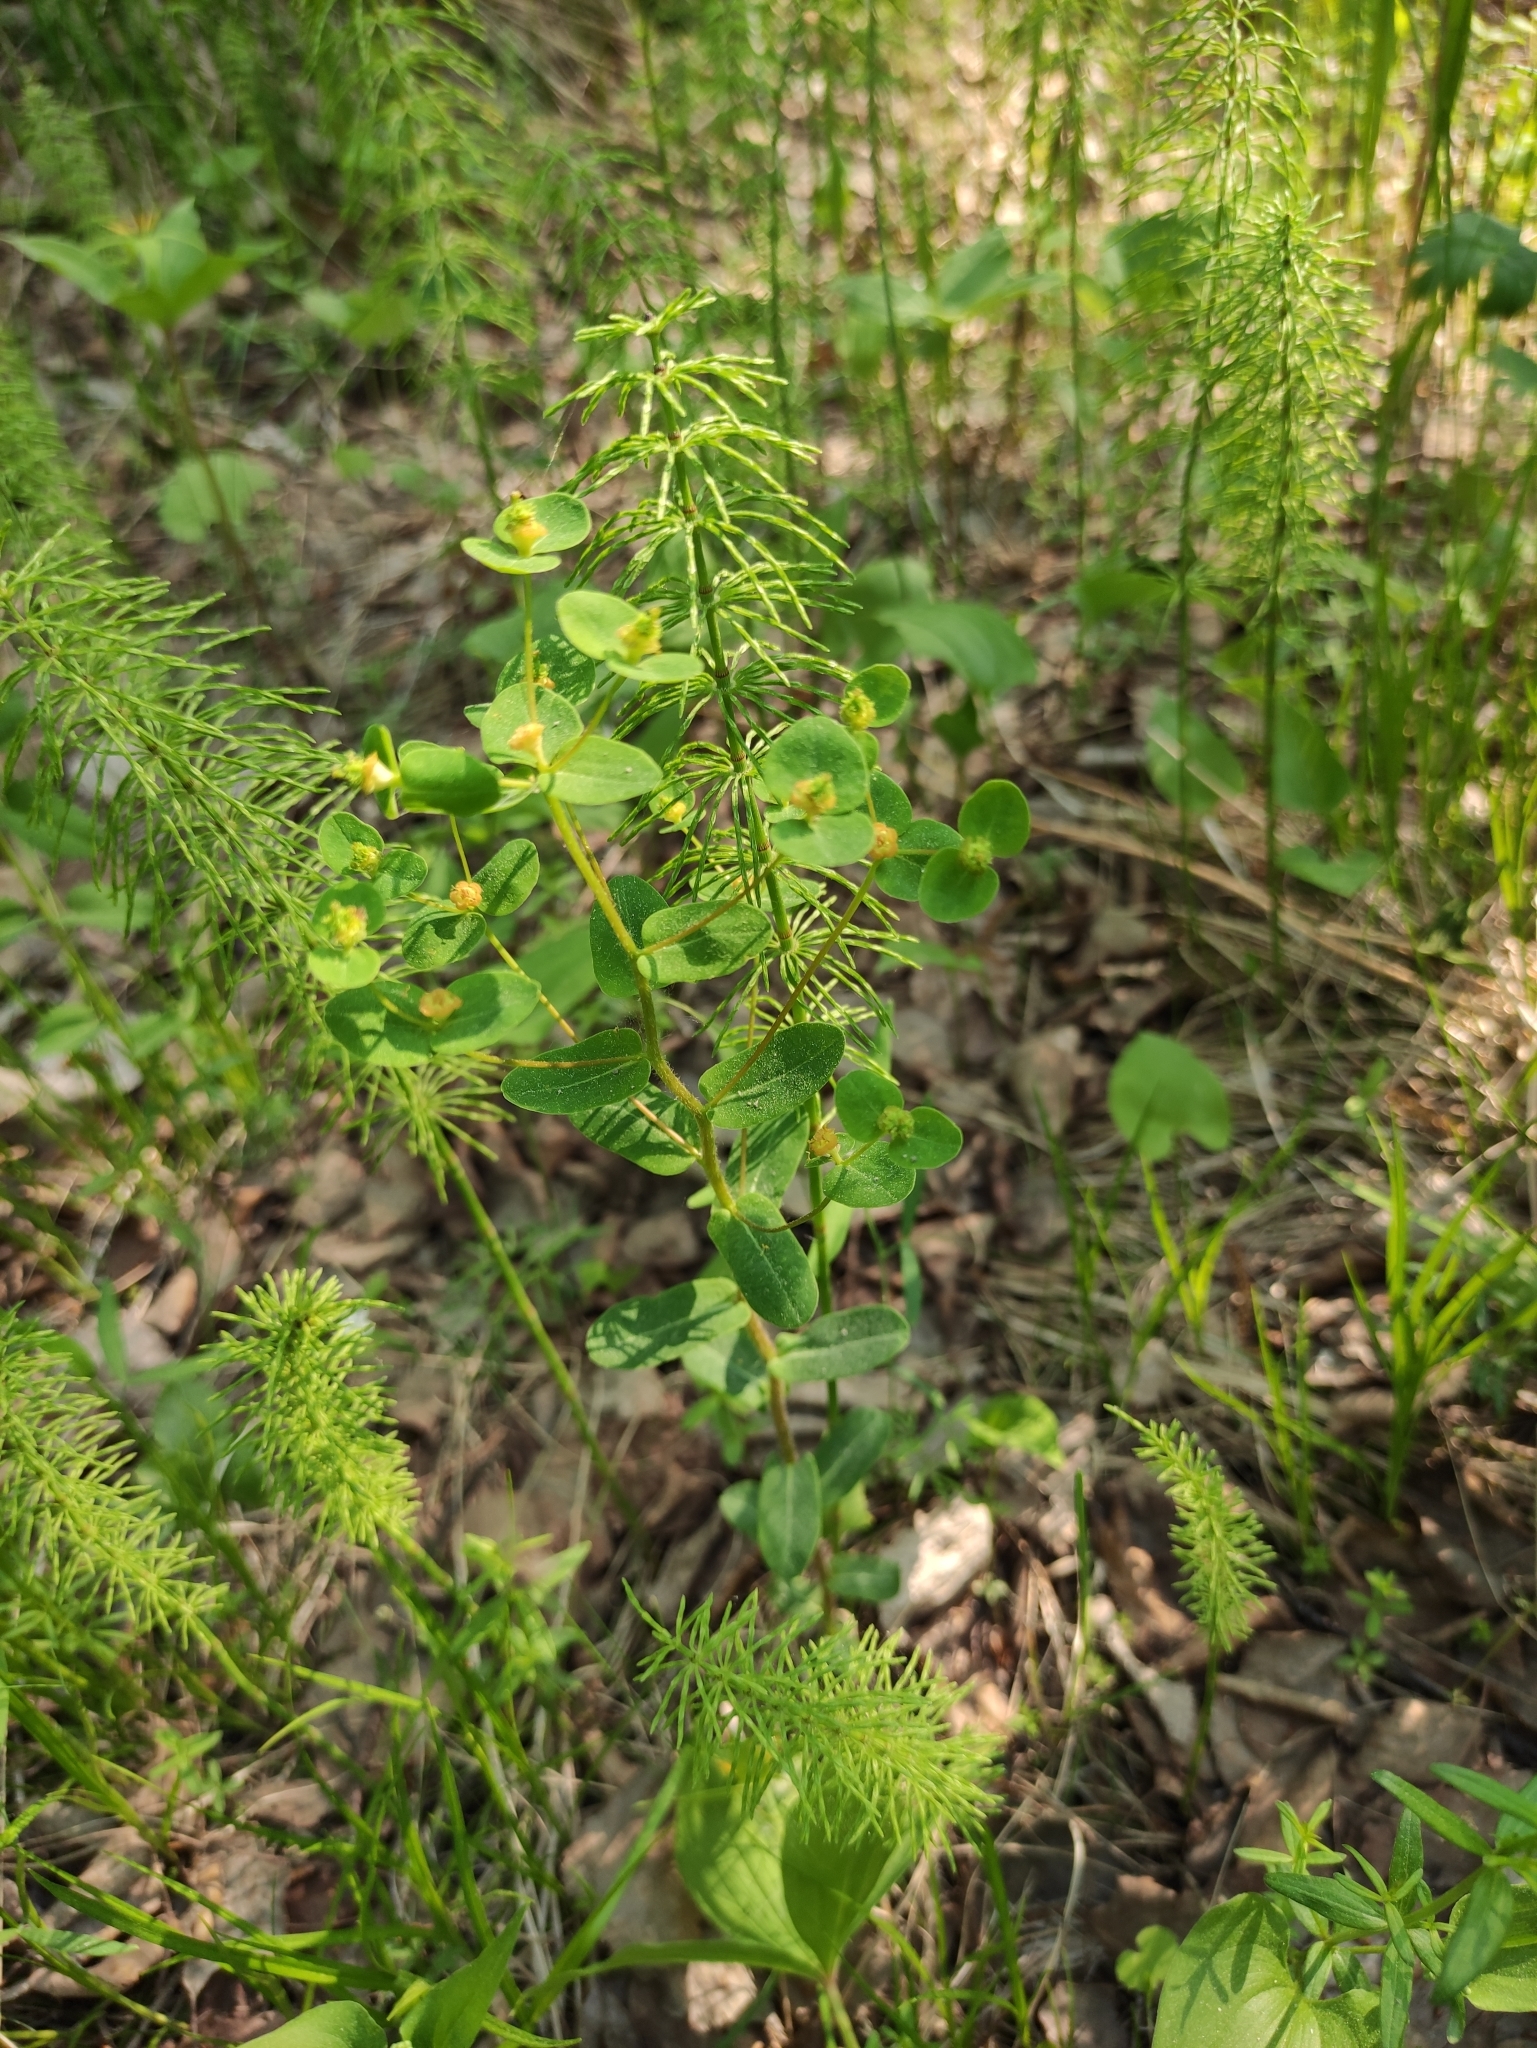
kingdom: Plantae
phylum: Tracheophyta
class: Magnoliopsida
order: Malpighiales
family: Euphorbiaceae
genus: Euphorbia
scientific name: Euphorbia jenisseiensis
